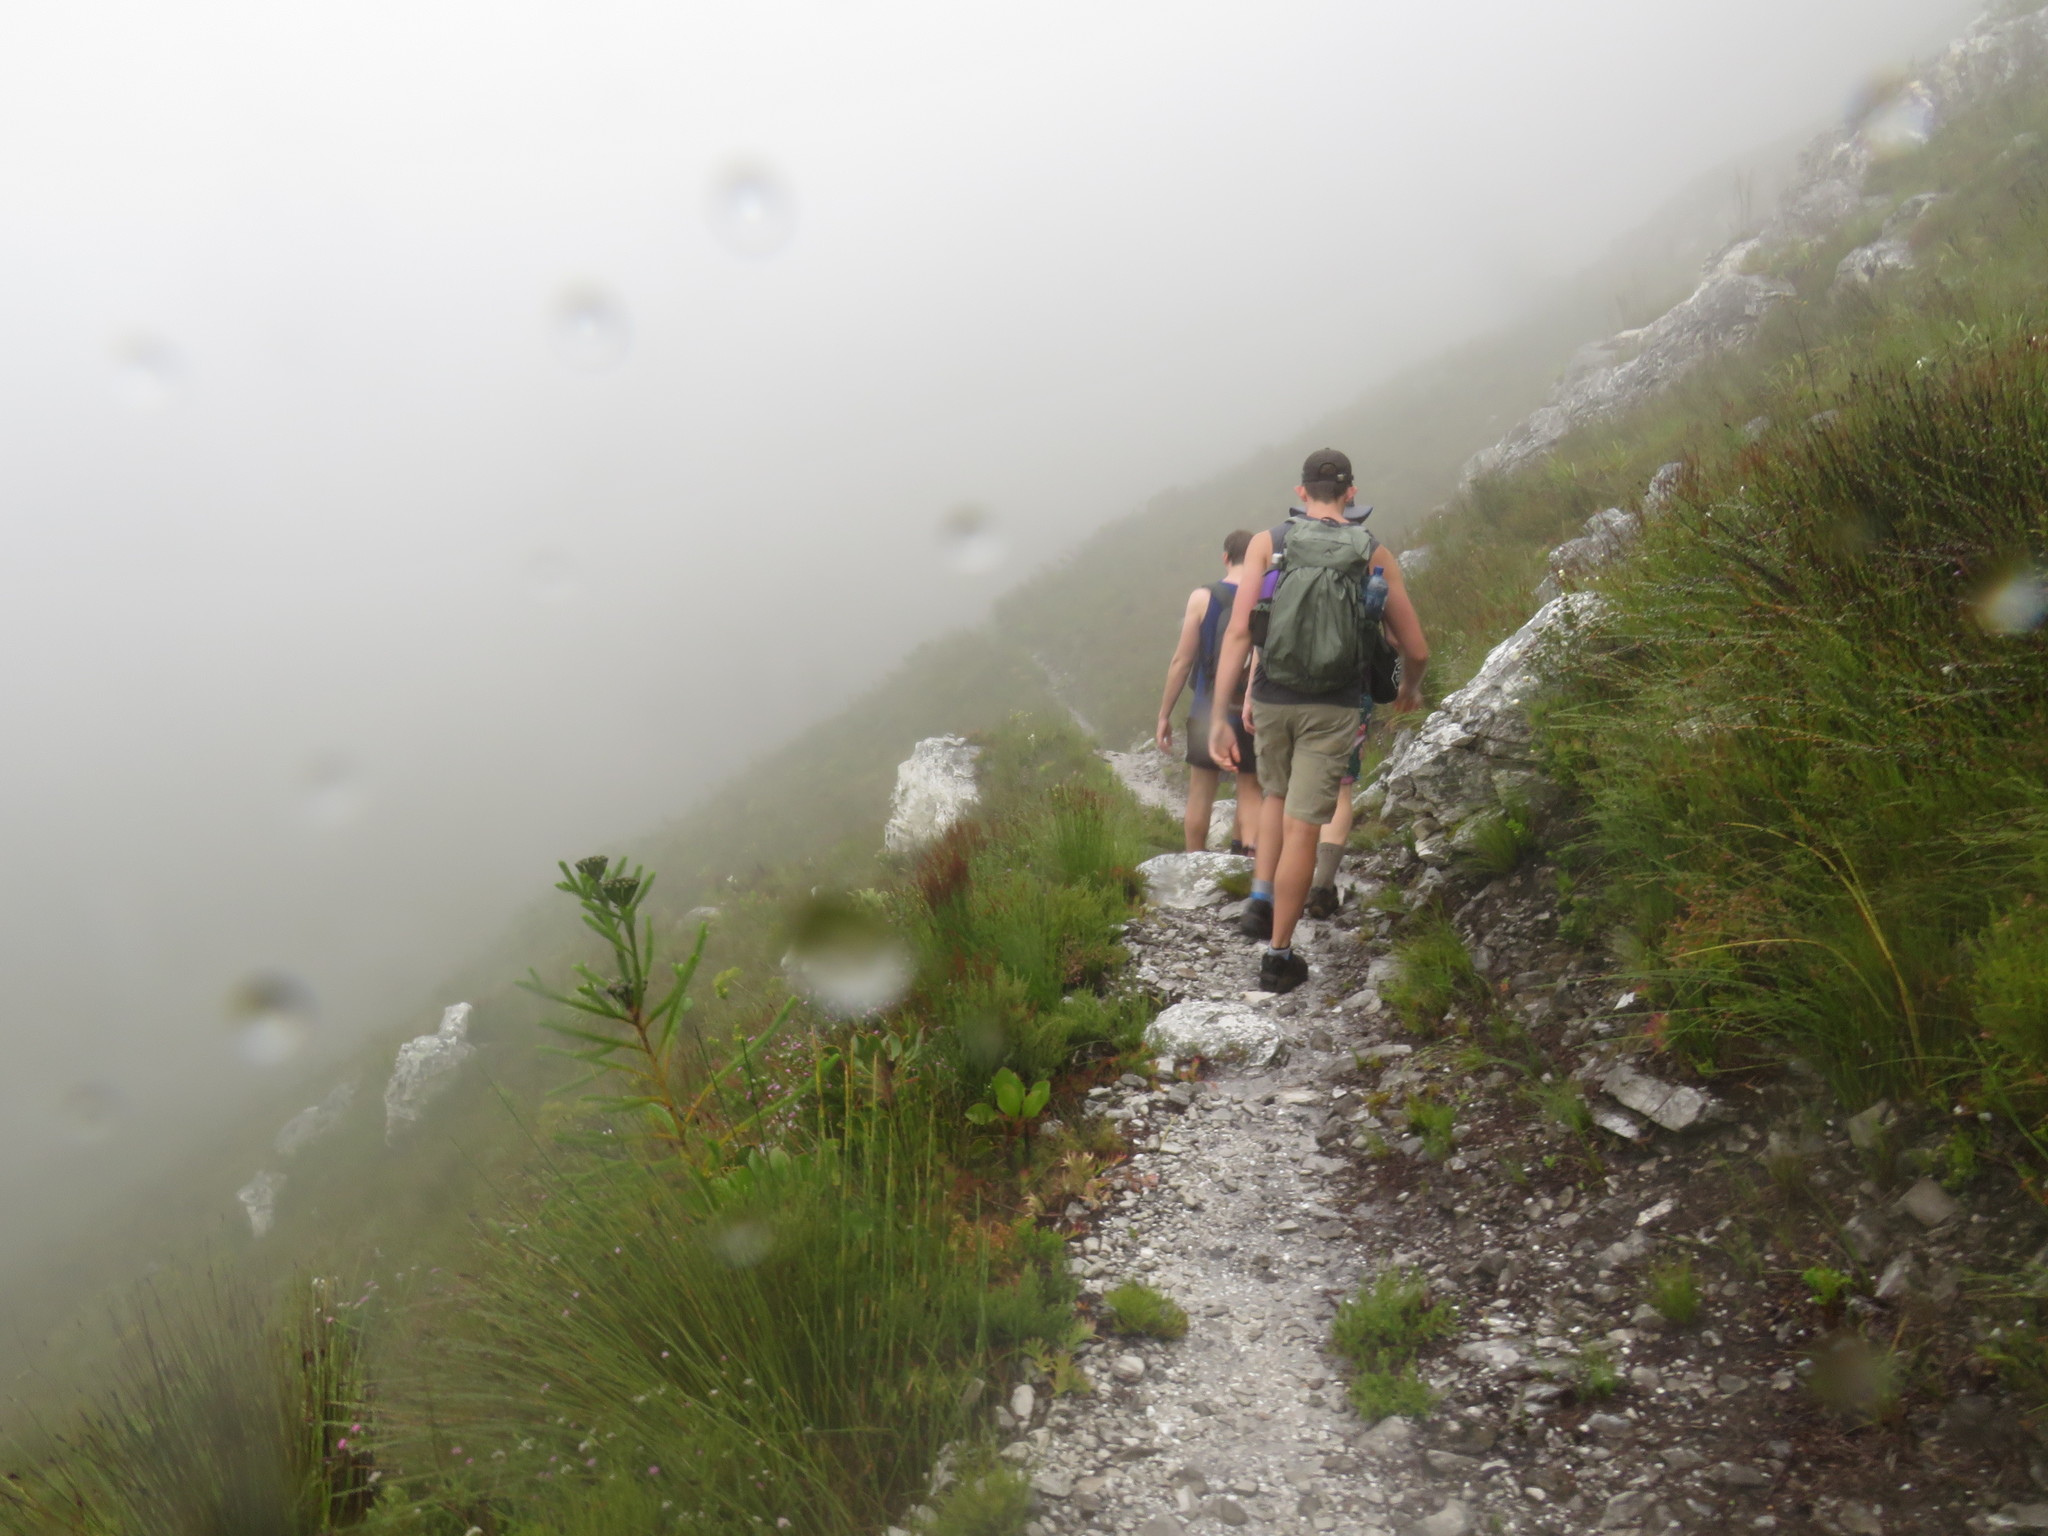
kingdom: Plantae
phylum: Tracheophyta
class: Magnoliopsida
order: Bruniales
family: Bruniaceae
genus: Berzelia
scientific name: Berzelia albiflora
